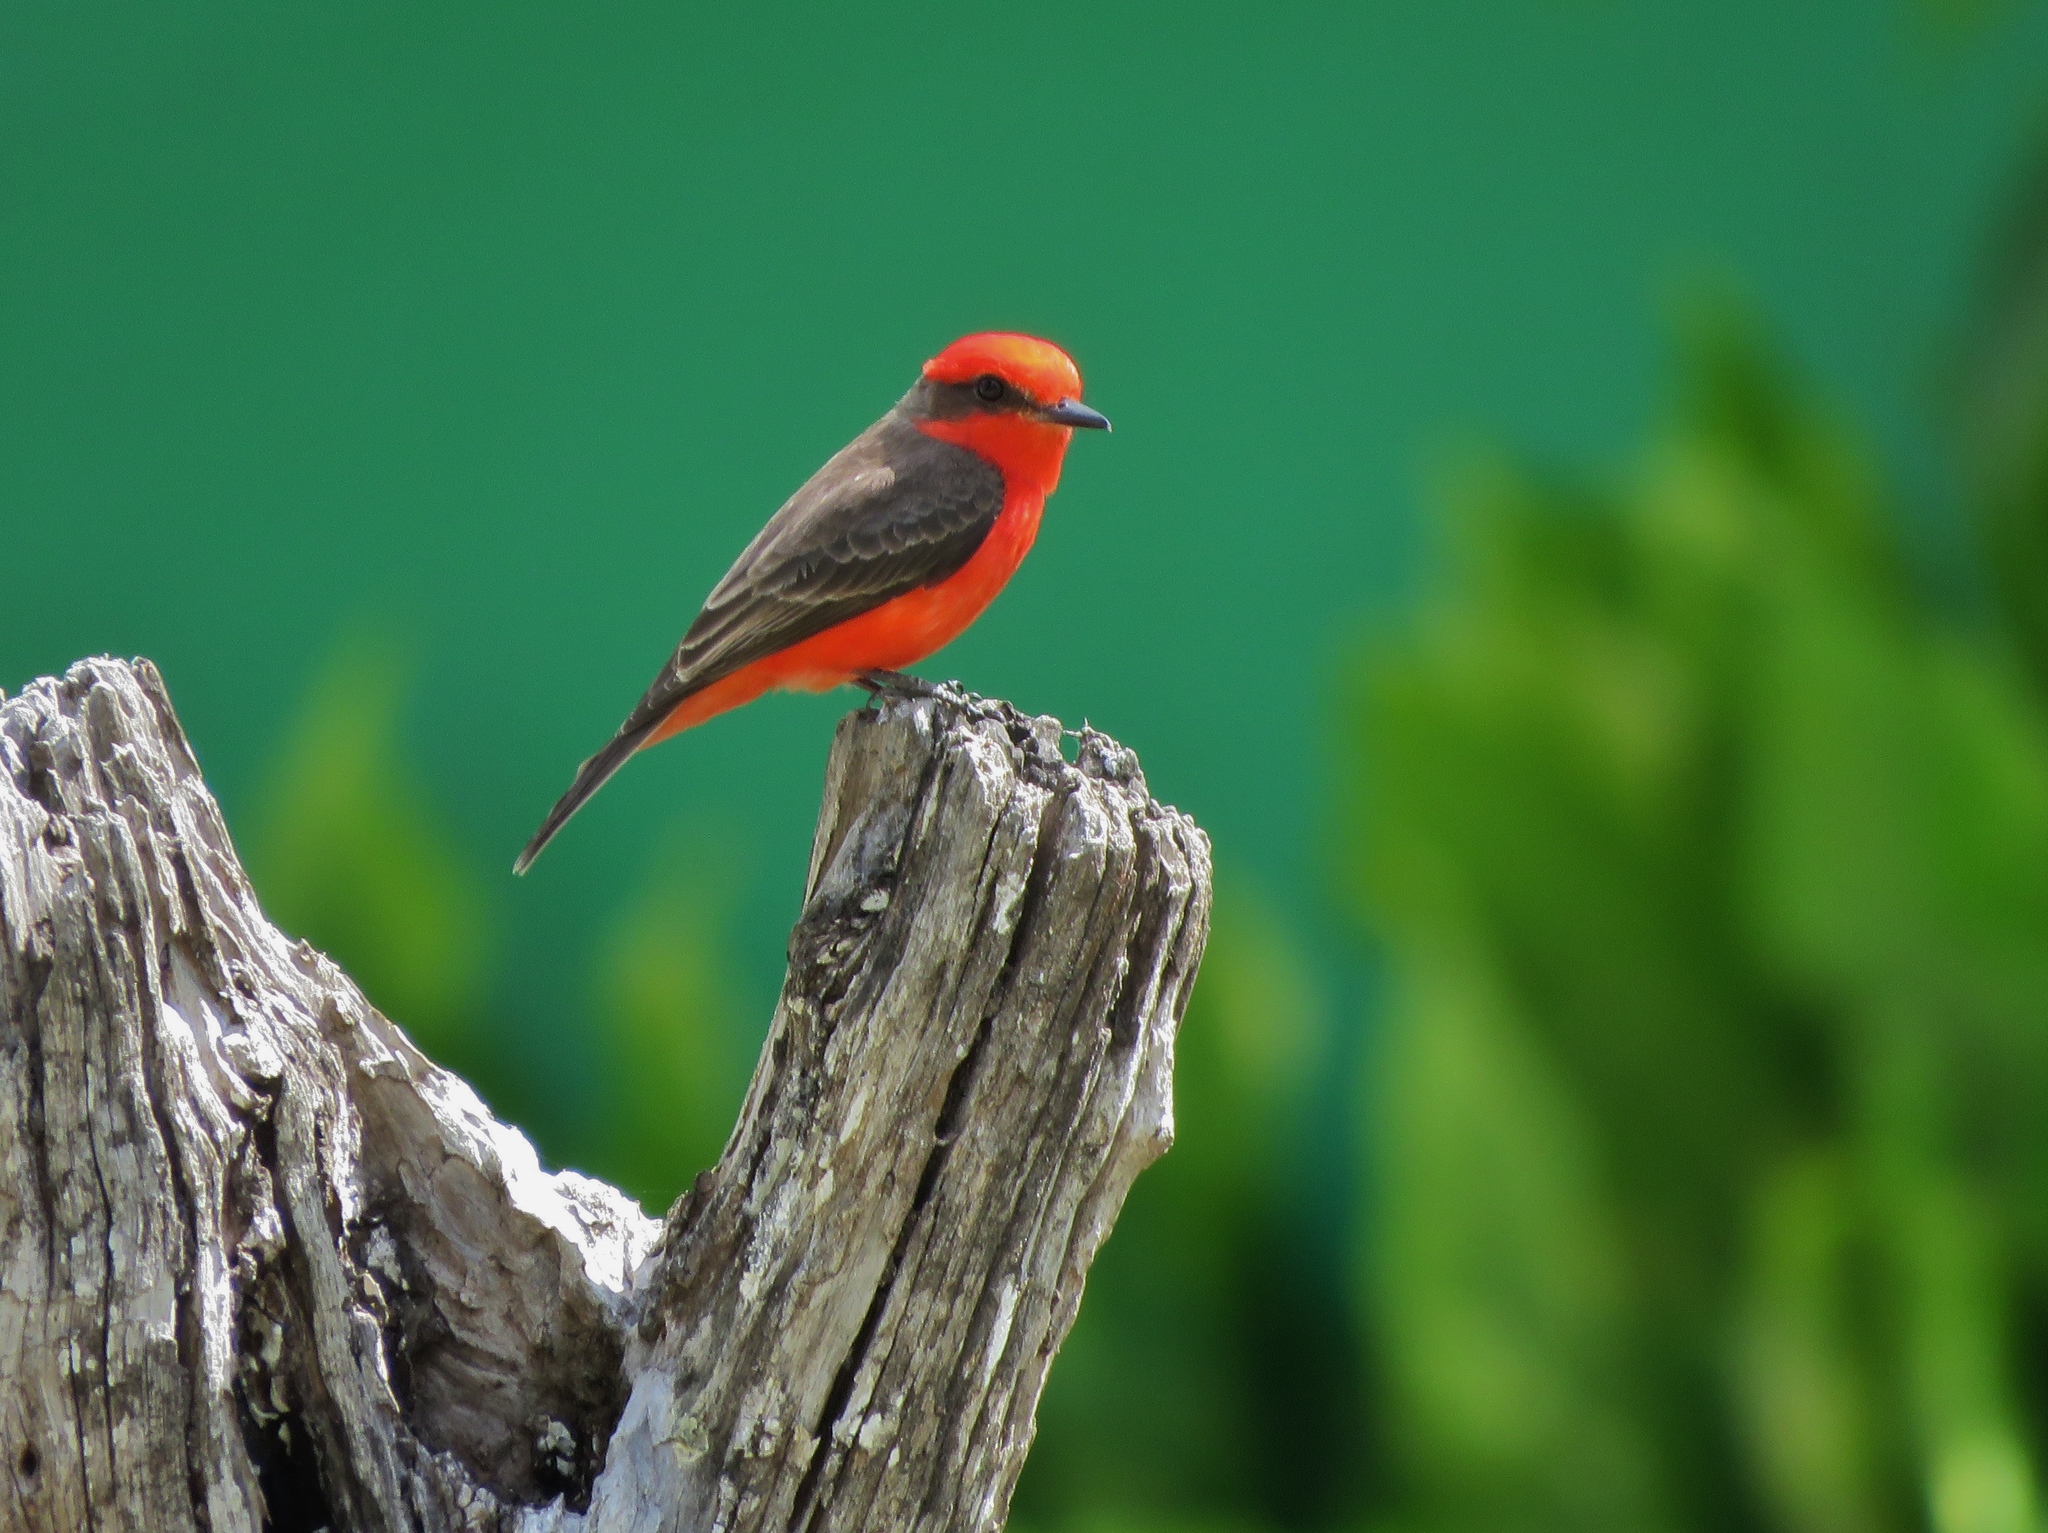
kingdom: Animalia
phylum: Chordata
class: Aves
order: Passeriformes
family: Tyrannidae
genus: Pyrocephalus
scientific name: Pyrocephalus rubinus
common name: Vermilion flycatcher
